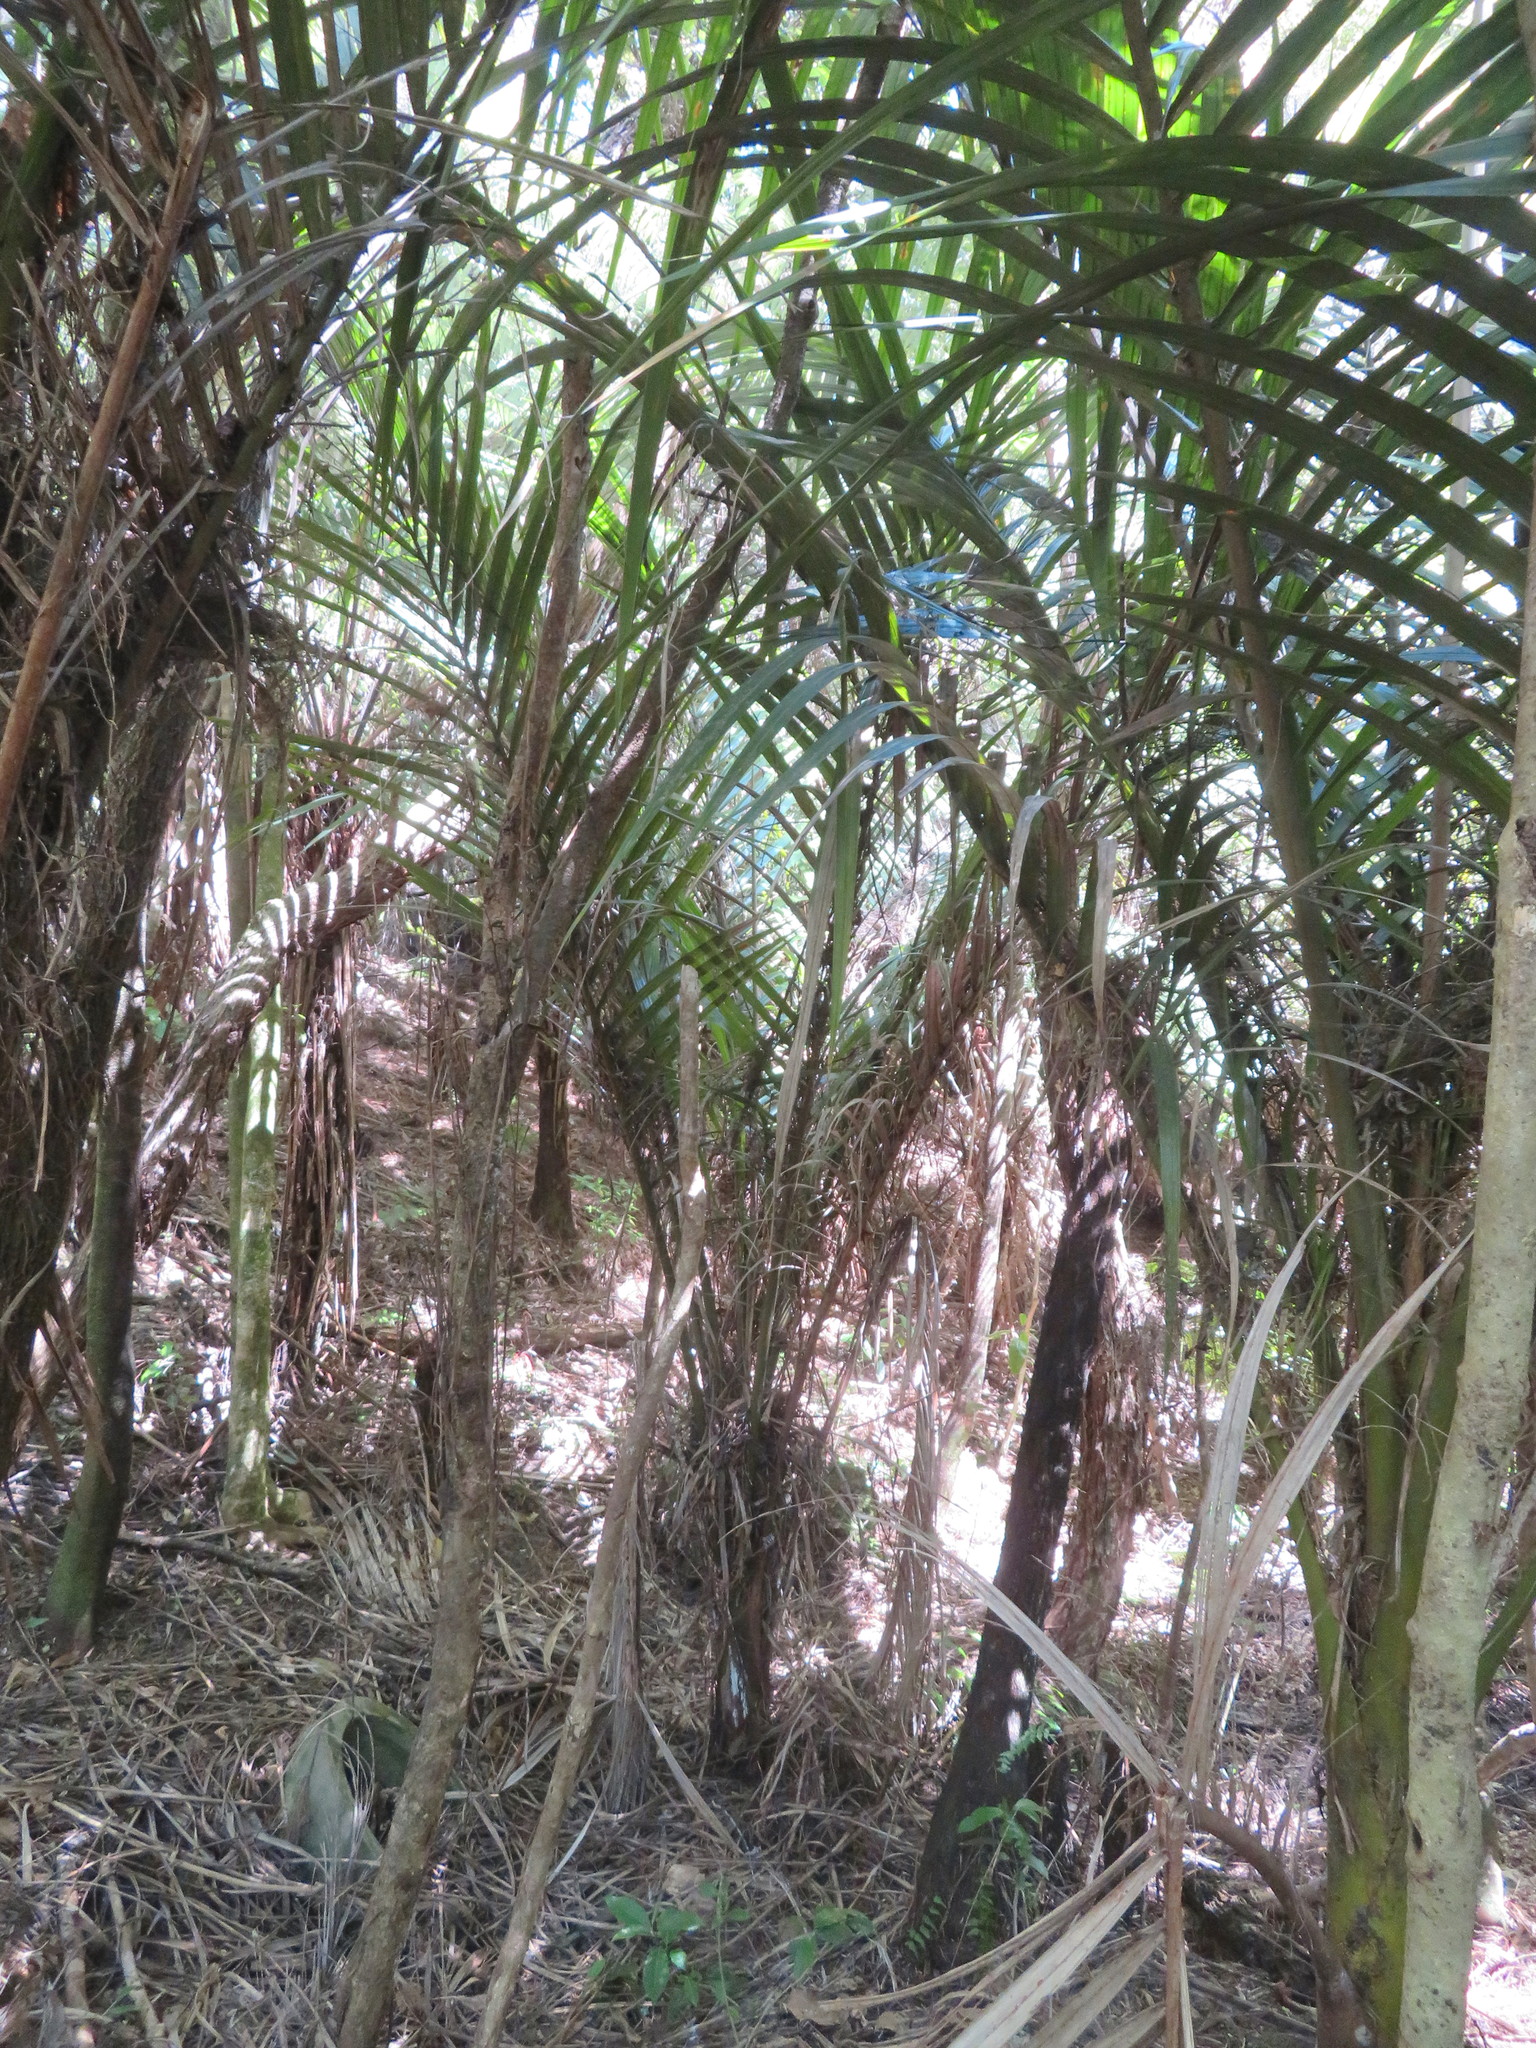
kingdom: Plantae
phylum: Tracheophyta
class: Liliopsida
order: Arecales
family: Arecaceae
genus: Rhopalostylis
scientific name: Rhopalostylis sapida
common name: Feather-duster palm
